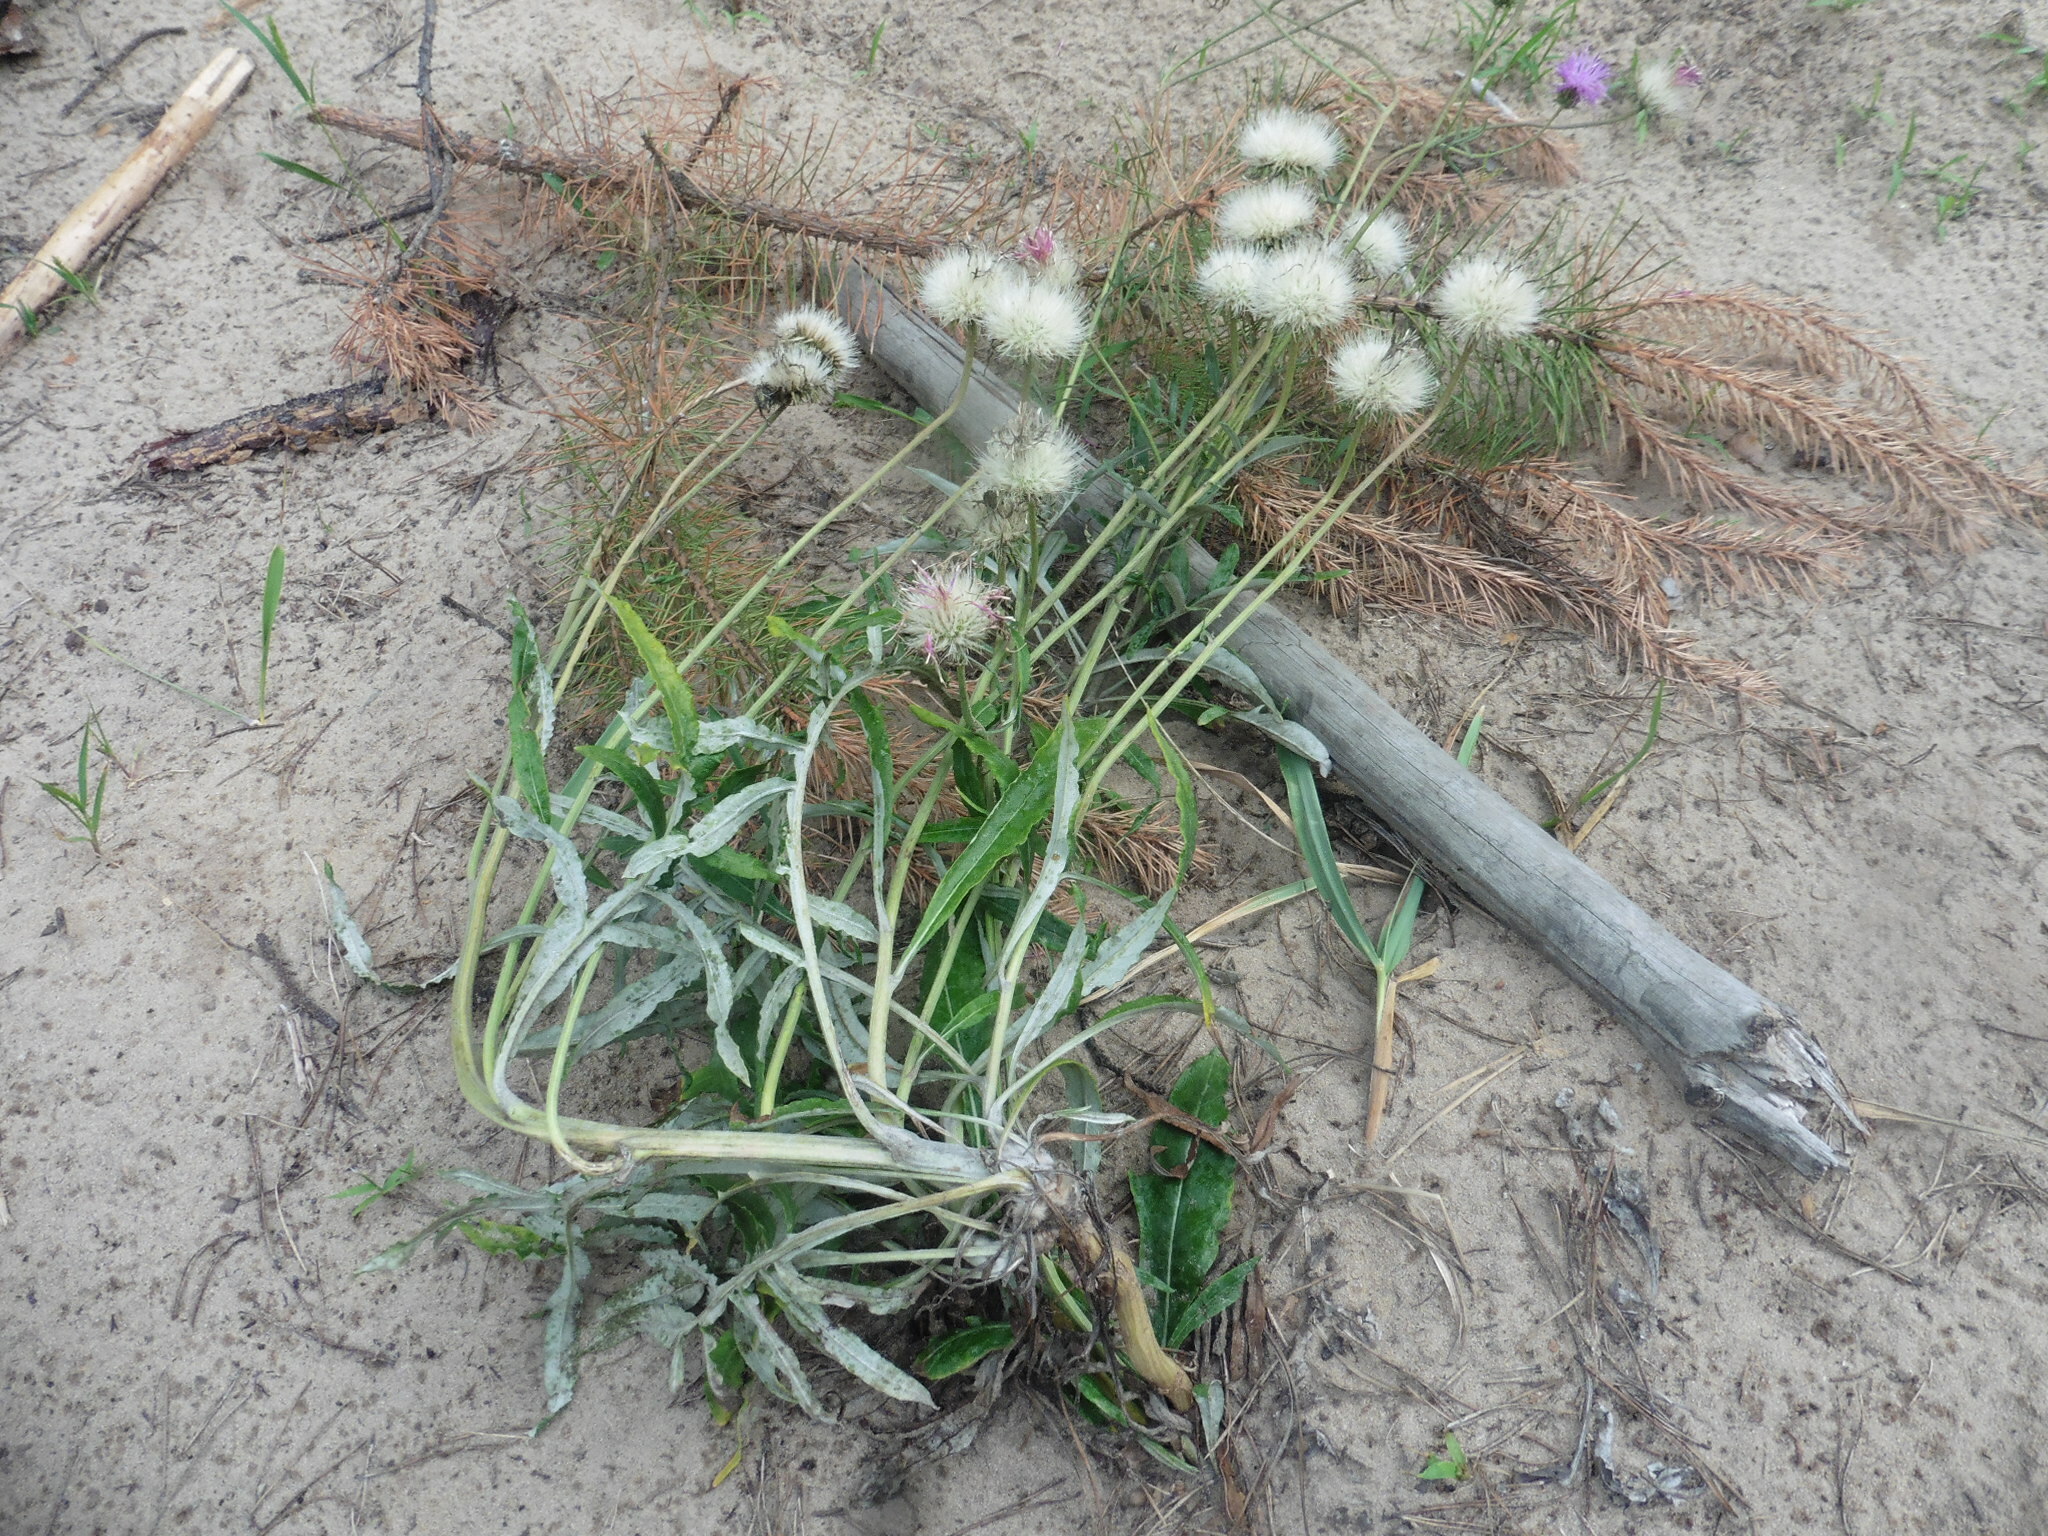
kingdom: Plantae
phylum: Tracheophyta
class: Magnoliopsida
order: Asterales
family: Asteraceae
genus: Jurinea
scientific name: Jurinea cyanoides
